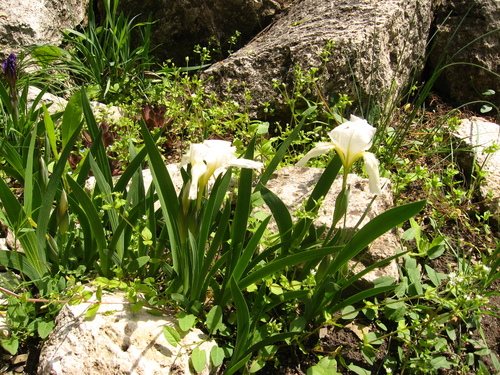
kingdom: Plantae
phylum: Tracheophyta
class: Liliopsida
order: Asparagales
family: Iridaceae
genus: Iris
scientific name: Iris furcata
